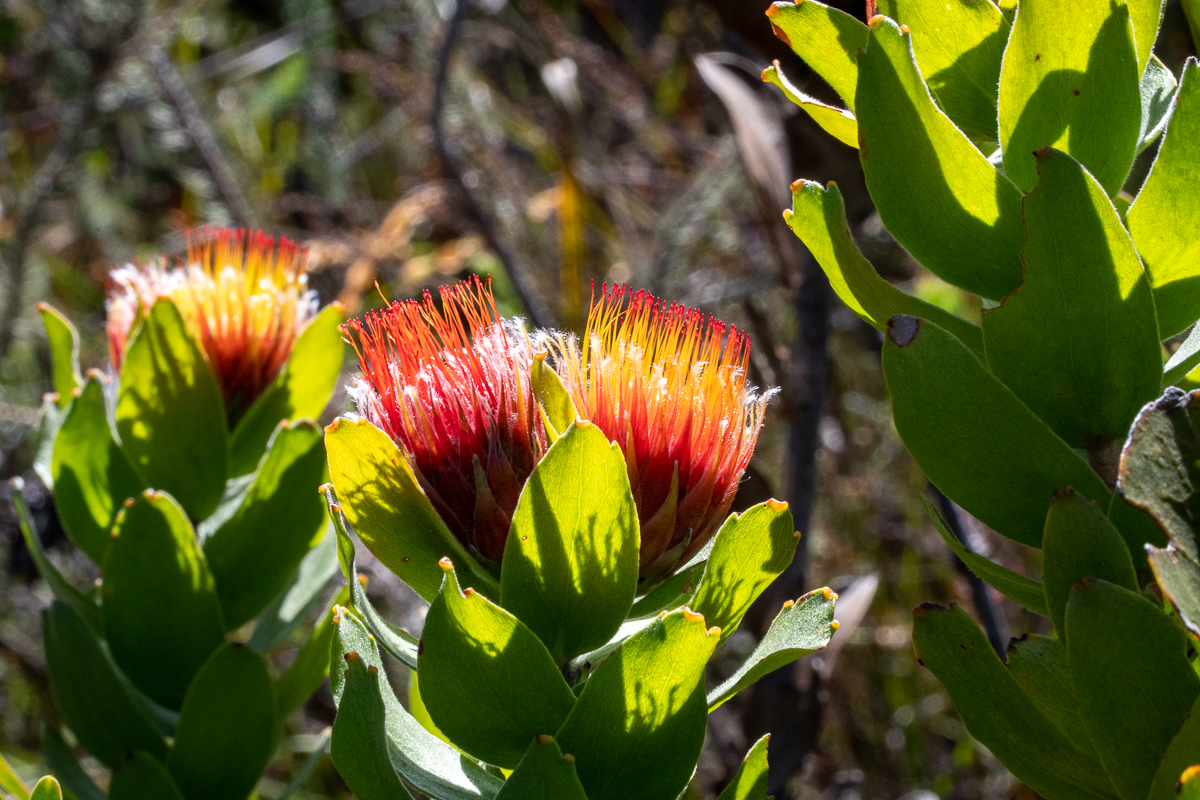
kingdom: Plantae
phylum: Tracheophyta
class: Magnoliopsida
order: Proteales
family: Proteaceae
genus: Leucospermum
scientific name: Leucospermum oleifolium
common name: Matches
